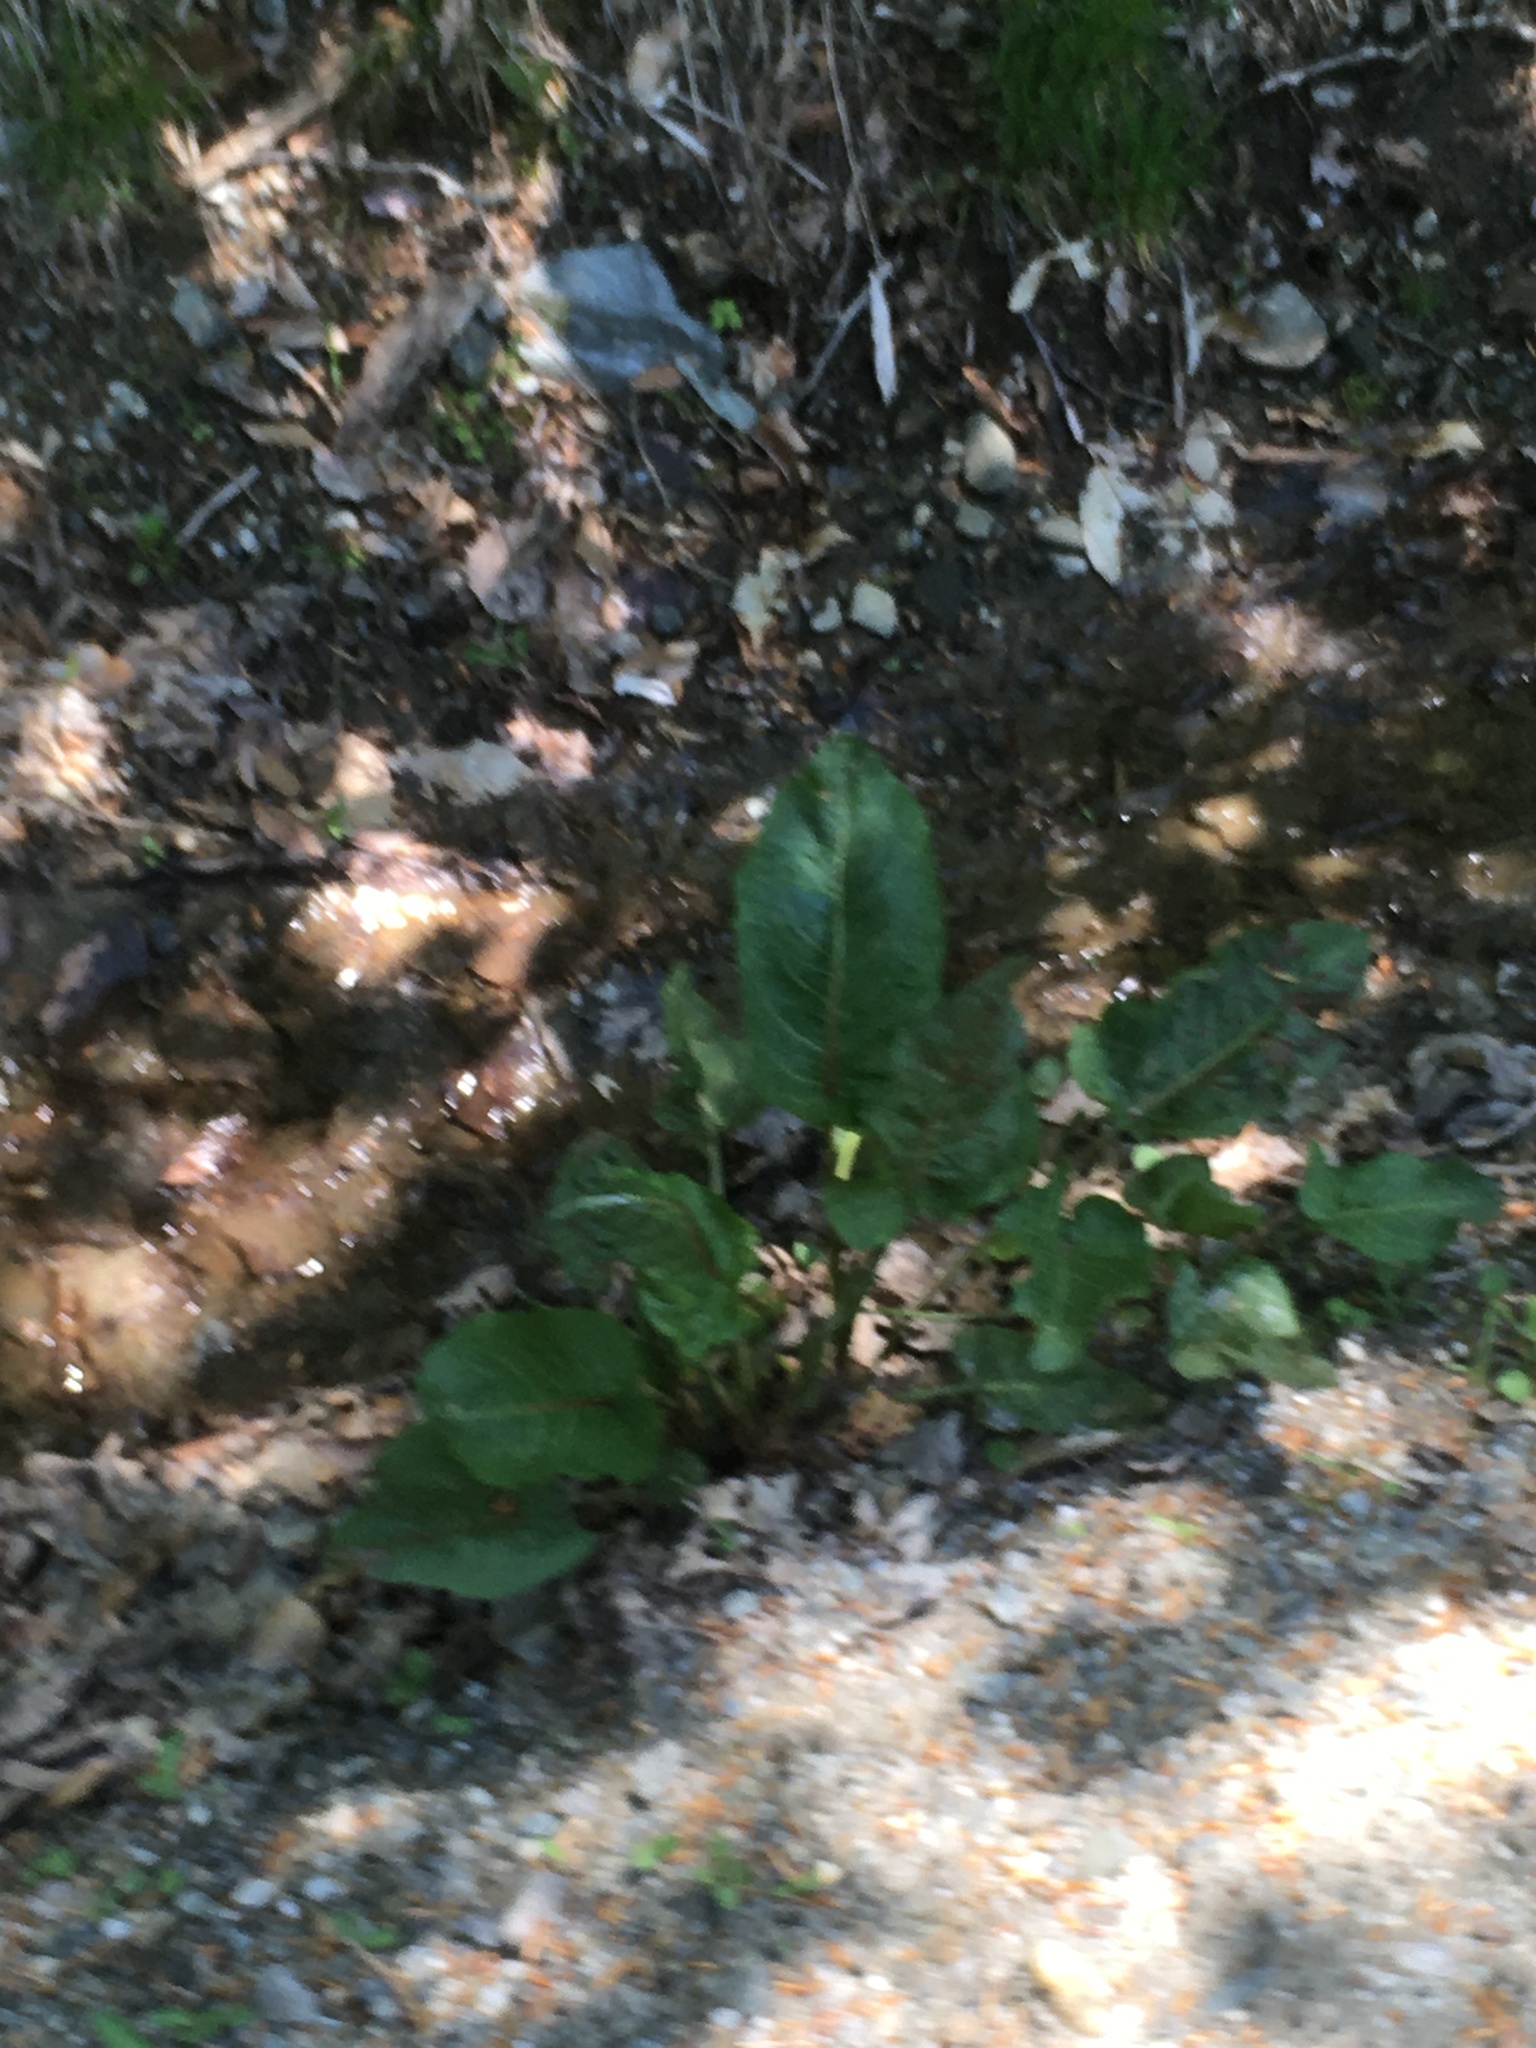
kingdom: Plantae
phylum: Tracheophyta
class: Magnoliopsida
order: Caryophyllales
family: Polygonaceae
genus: Rumex
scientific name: Rumex obtusifolius
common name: Bitter dock
